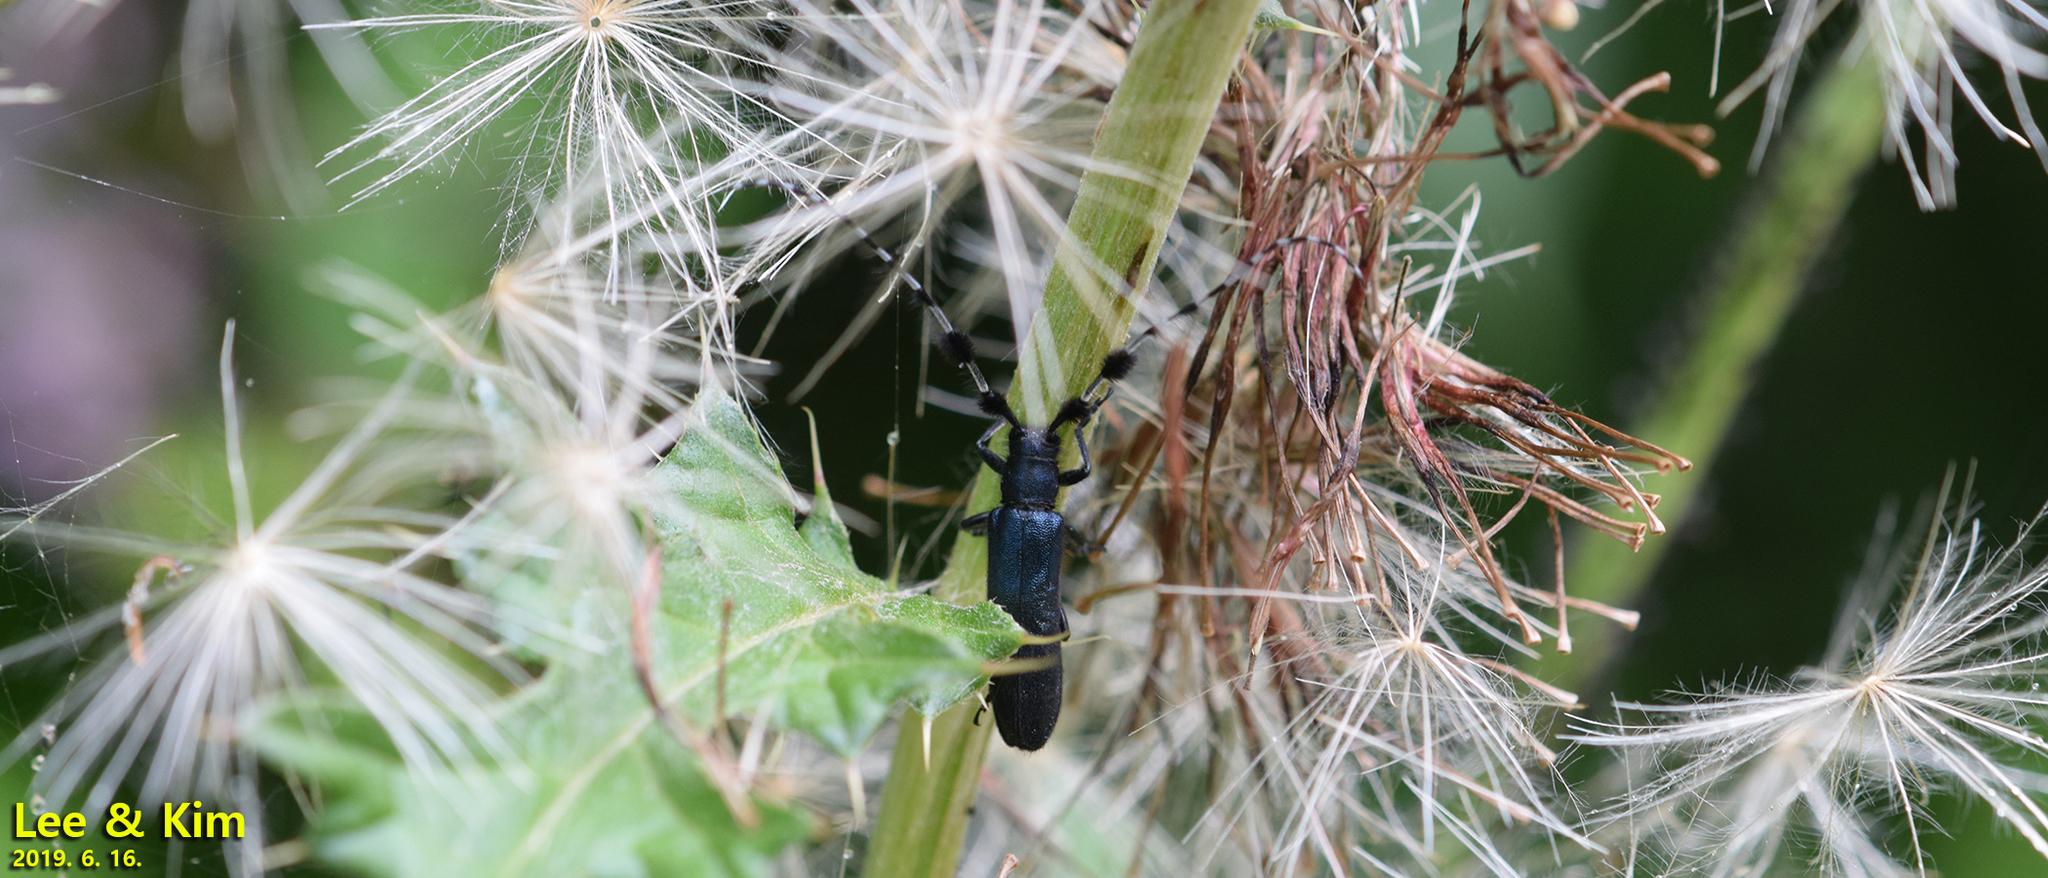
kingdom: Animalia
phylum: Arthropoda
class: Insecta
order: Coleoptera
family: Cerambycidae
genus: Agapanthia
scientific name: Agapanthia amurensis
